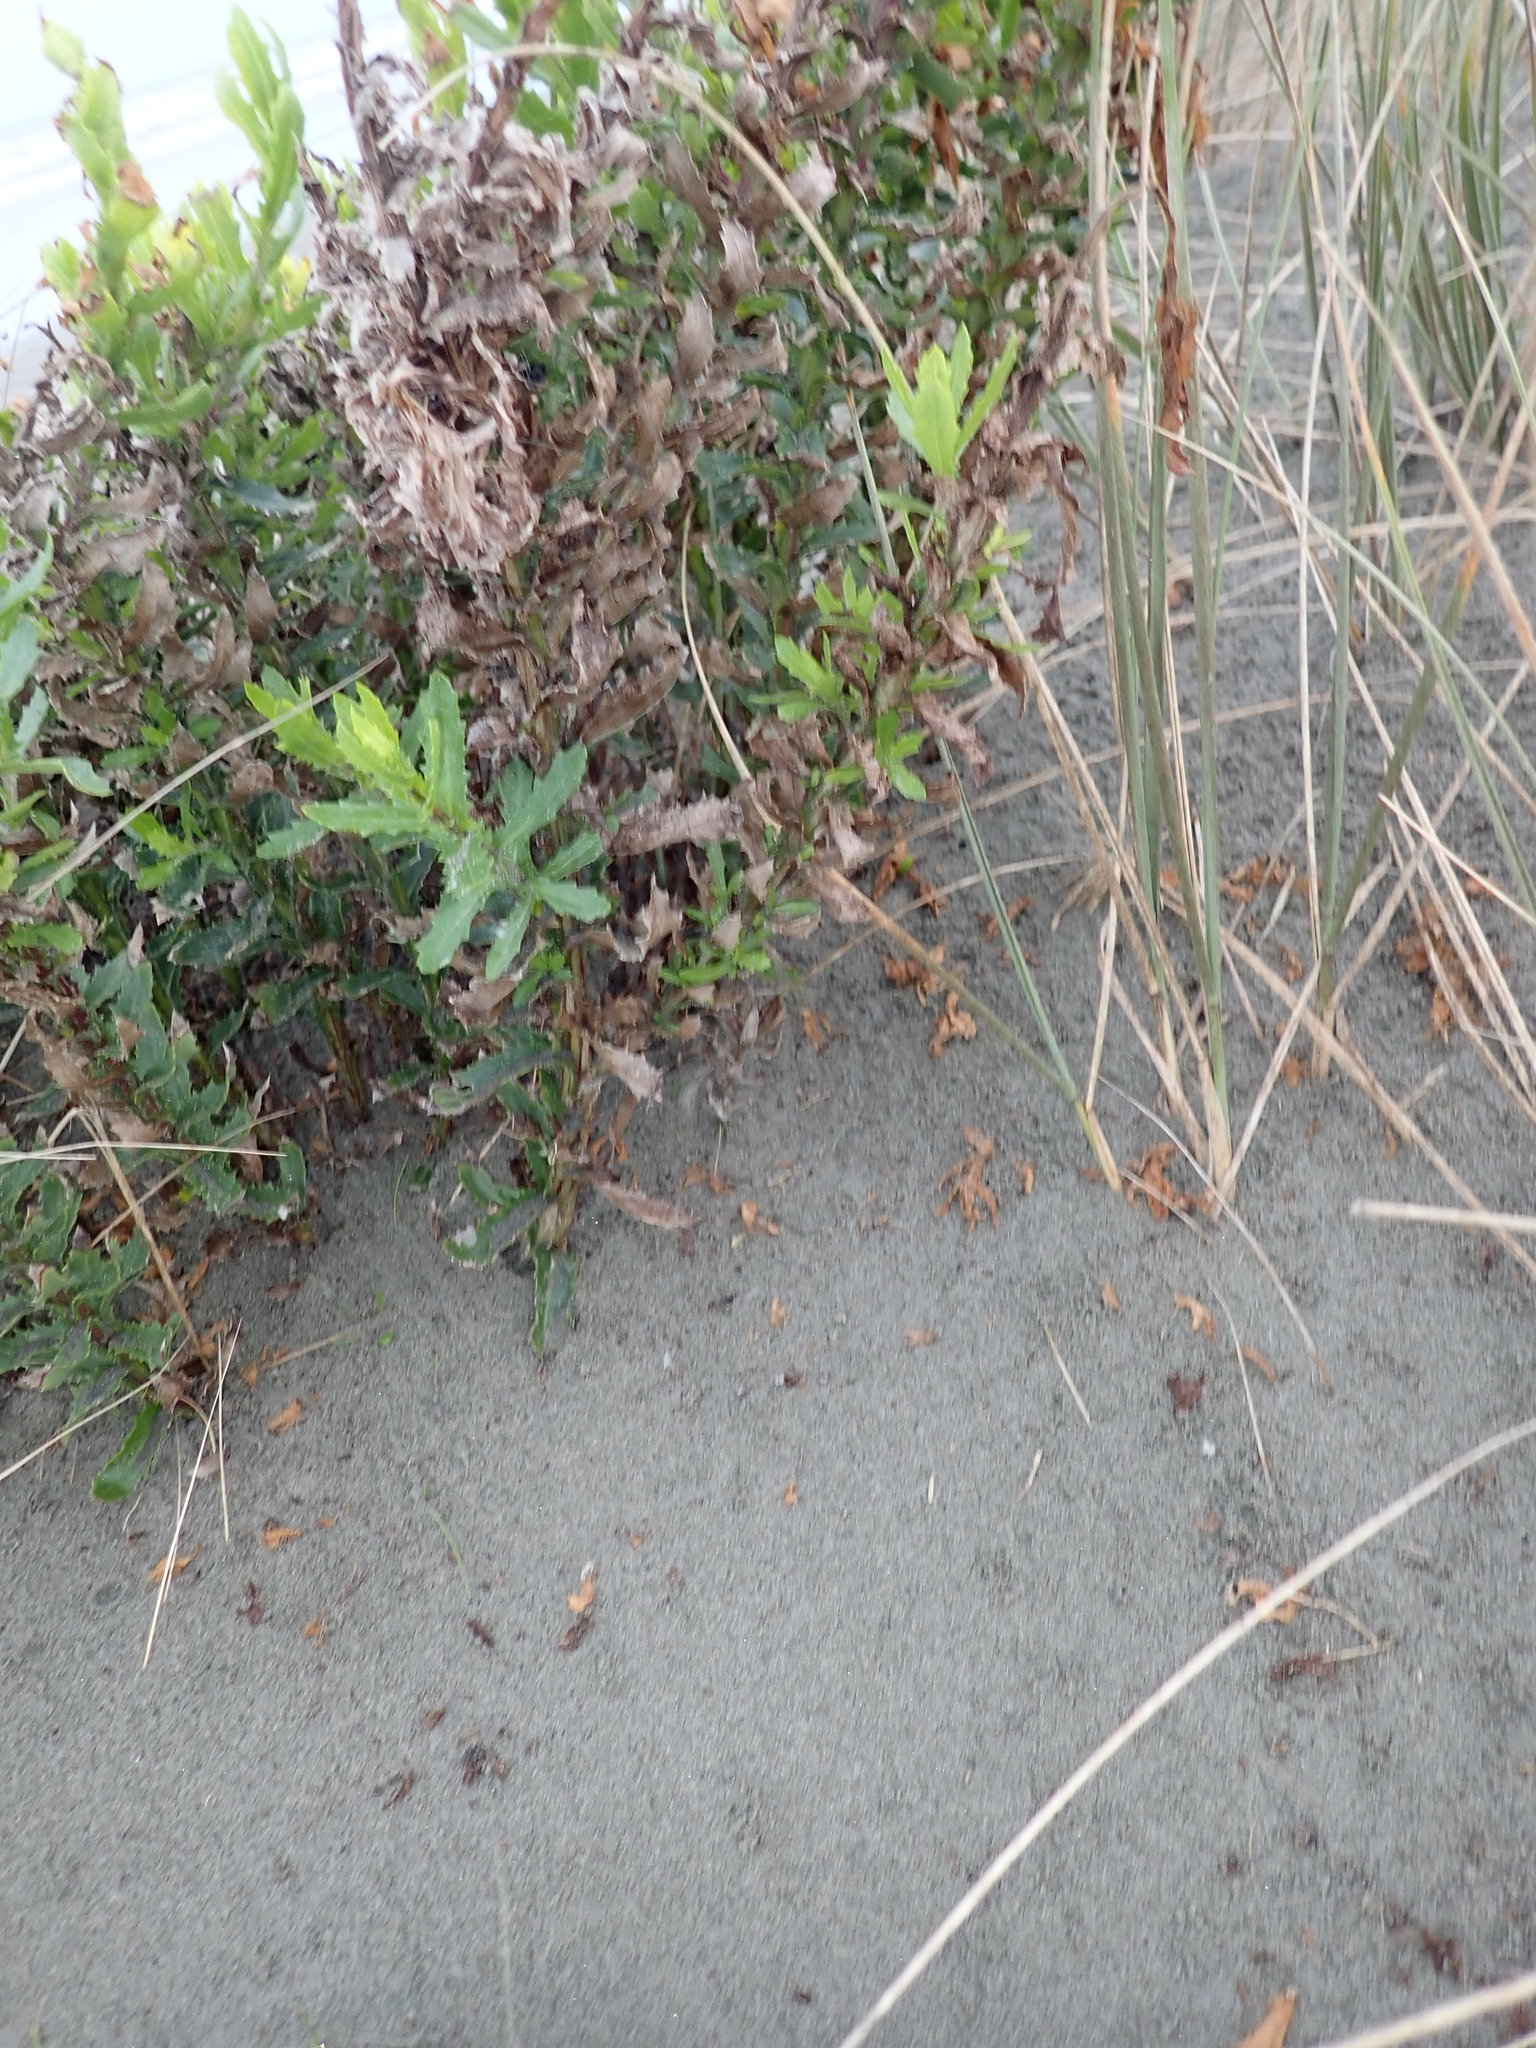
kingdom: Plantae
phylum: Tracheophyta
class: Magnoliopsida
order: Asterales
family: Asteraceae
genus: Senecio
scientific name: Senecio glastifolius
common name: Woad-leaved ragwort
